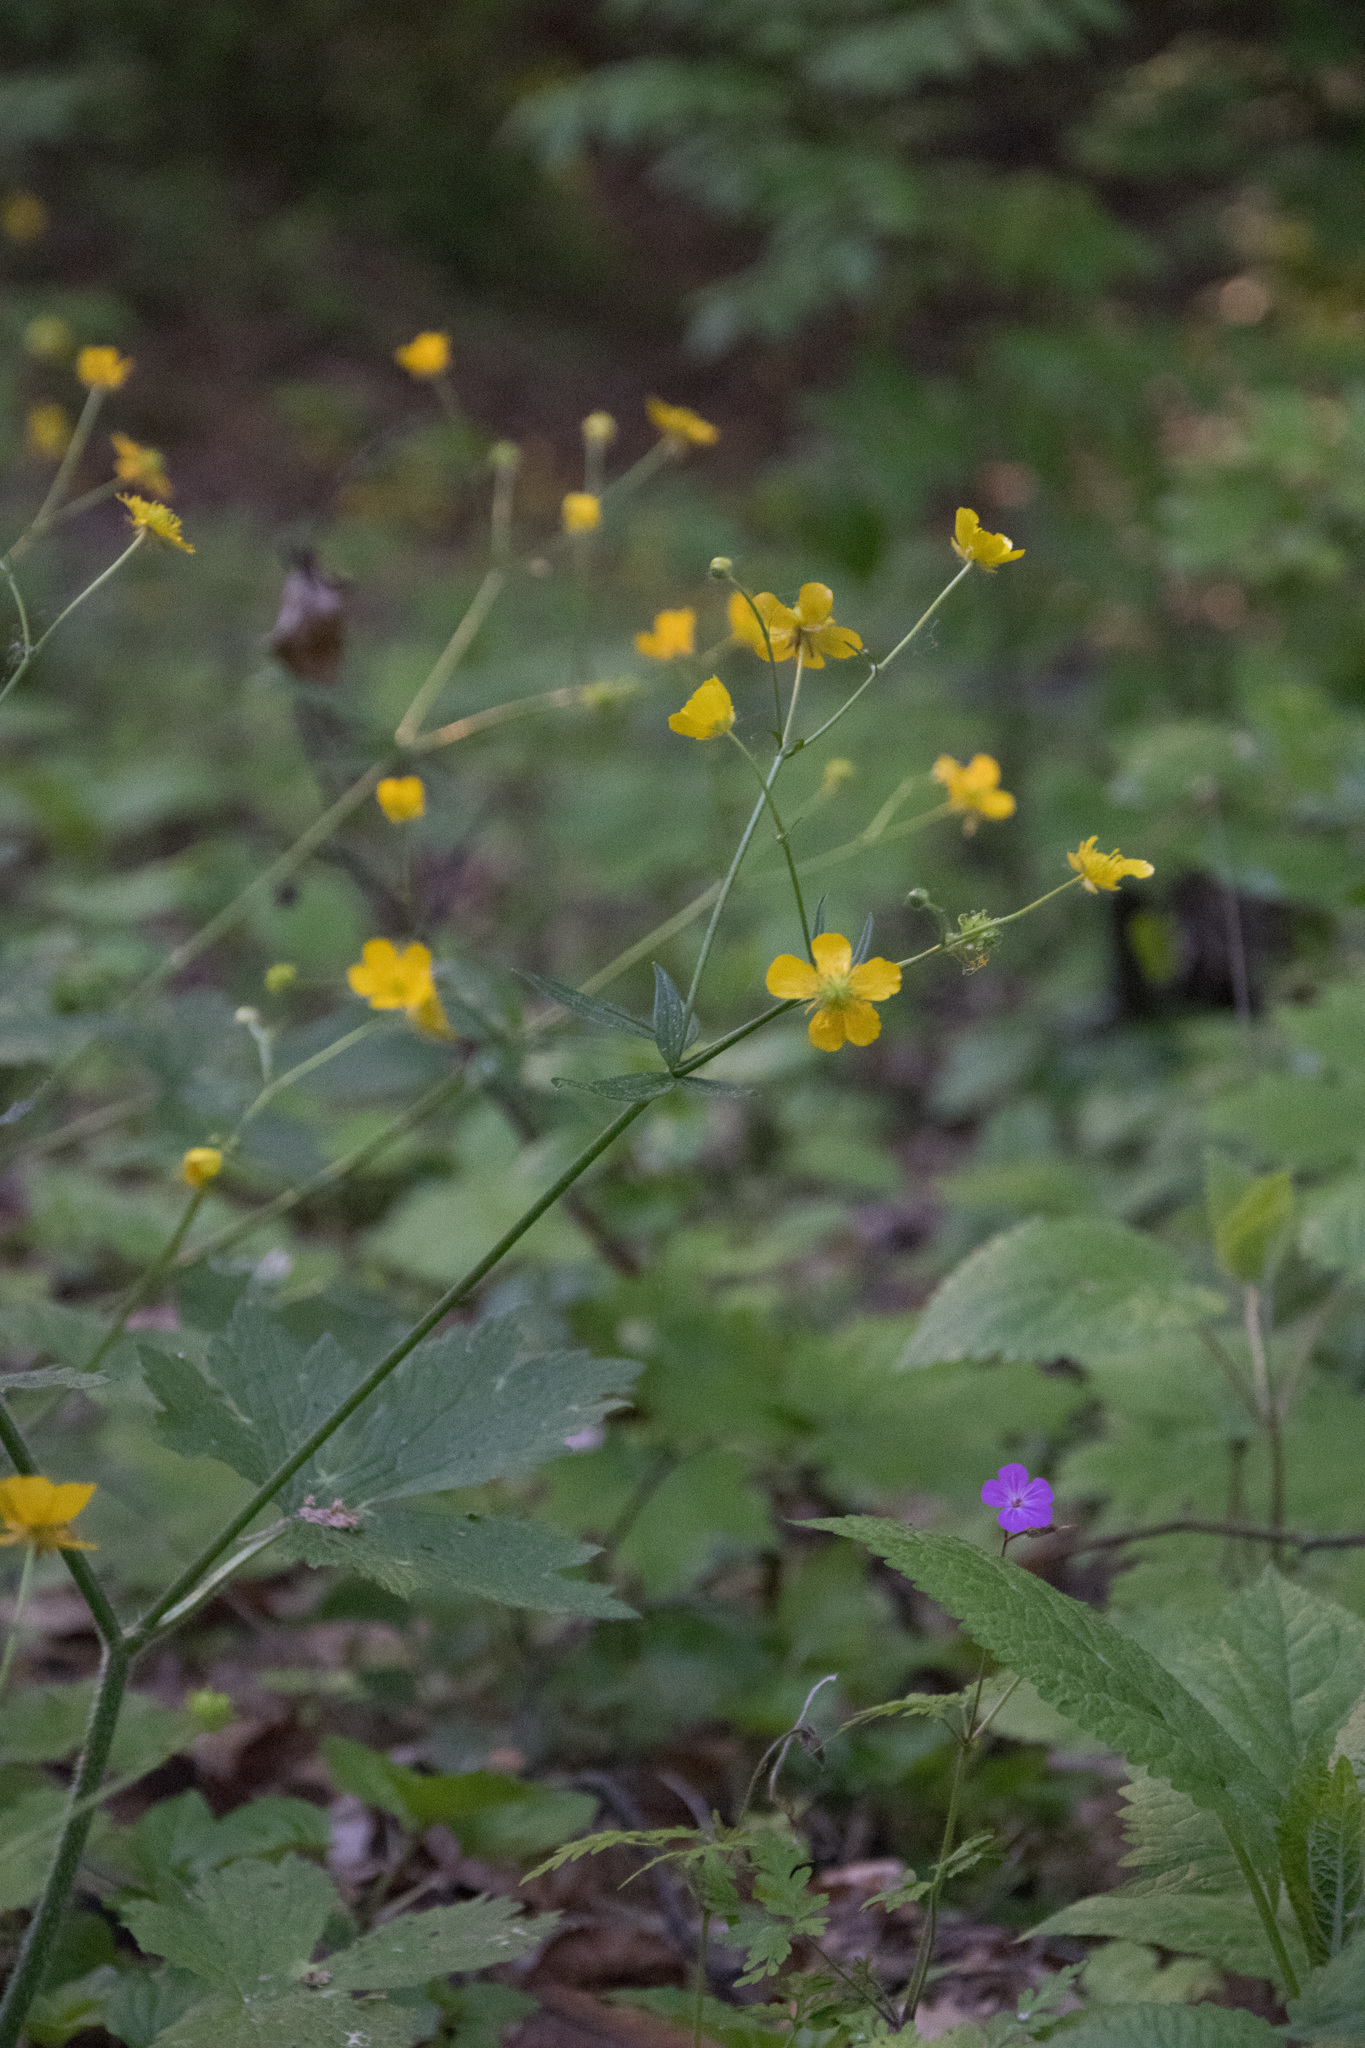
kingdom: Plantae
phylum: Tracheophyta
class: Magnoliopsida
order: Ranunculales
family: Ranunculaceae
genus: Ranunculus
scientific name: Ranunculus lanuginosus
